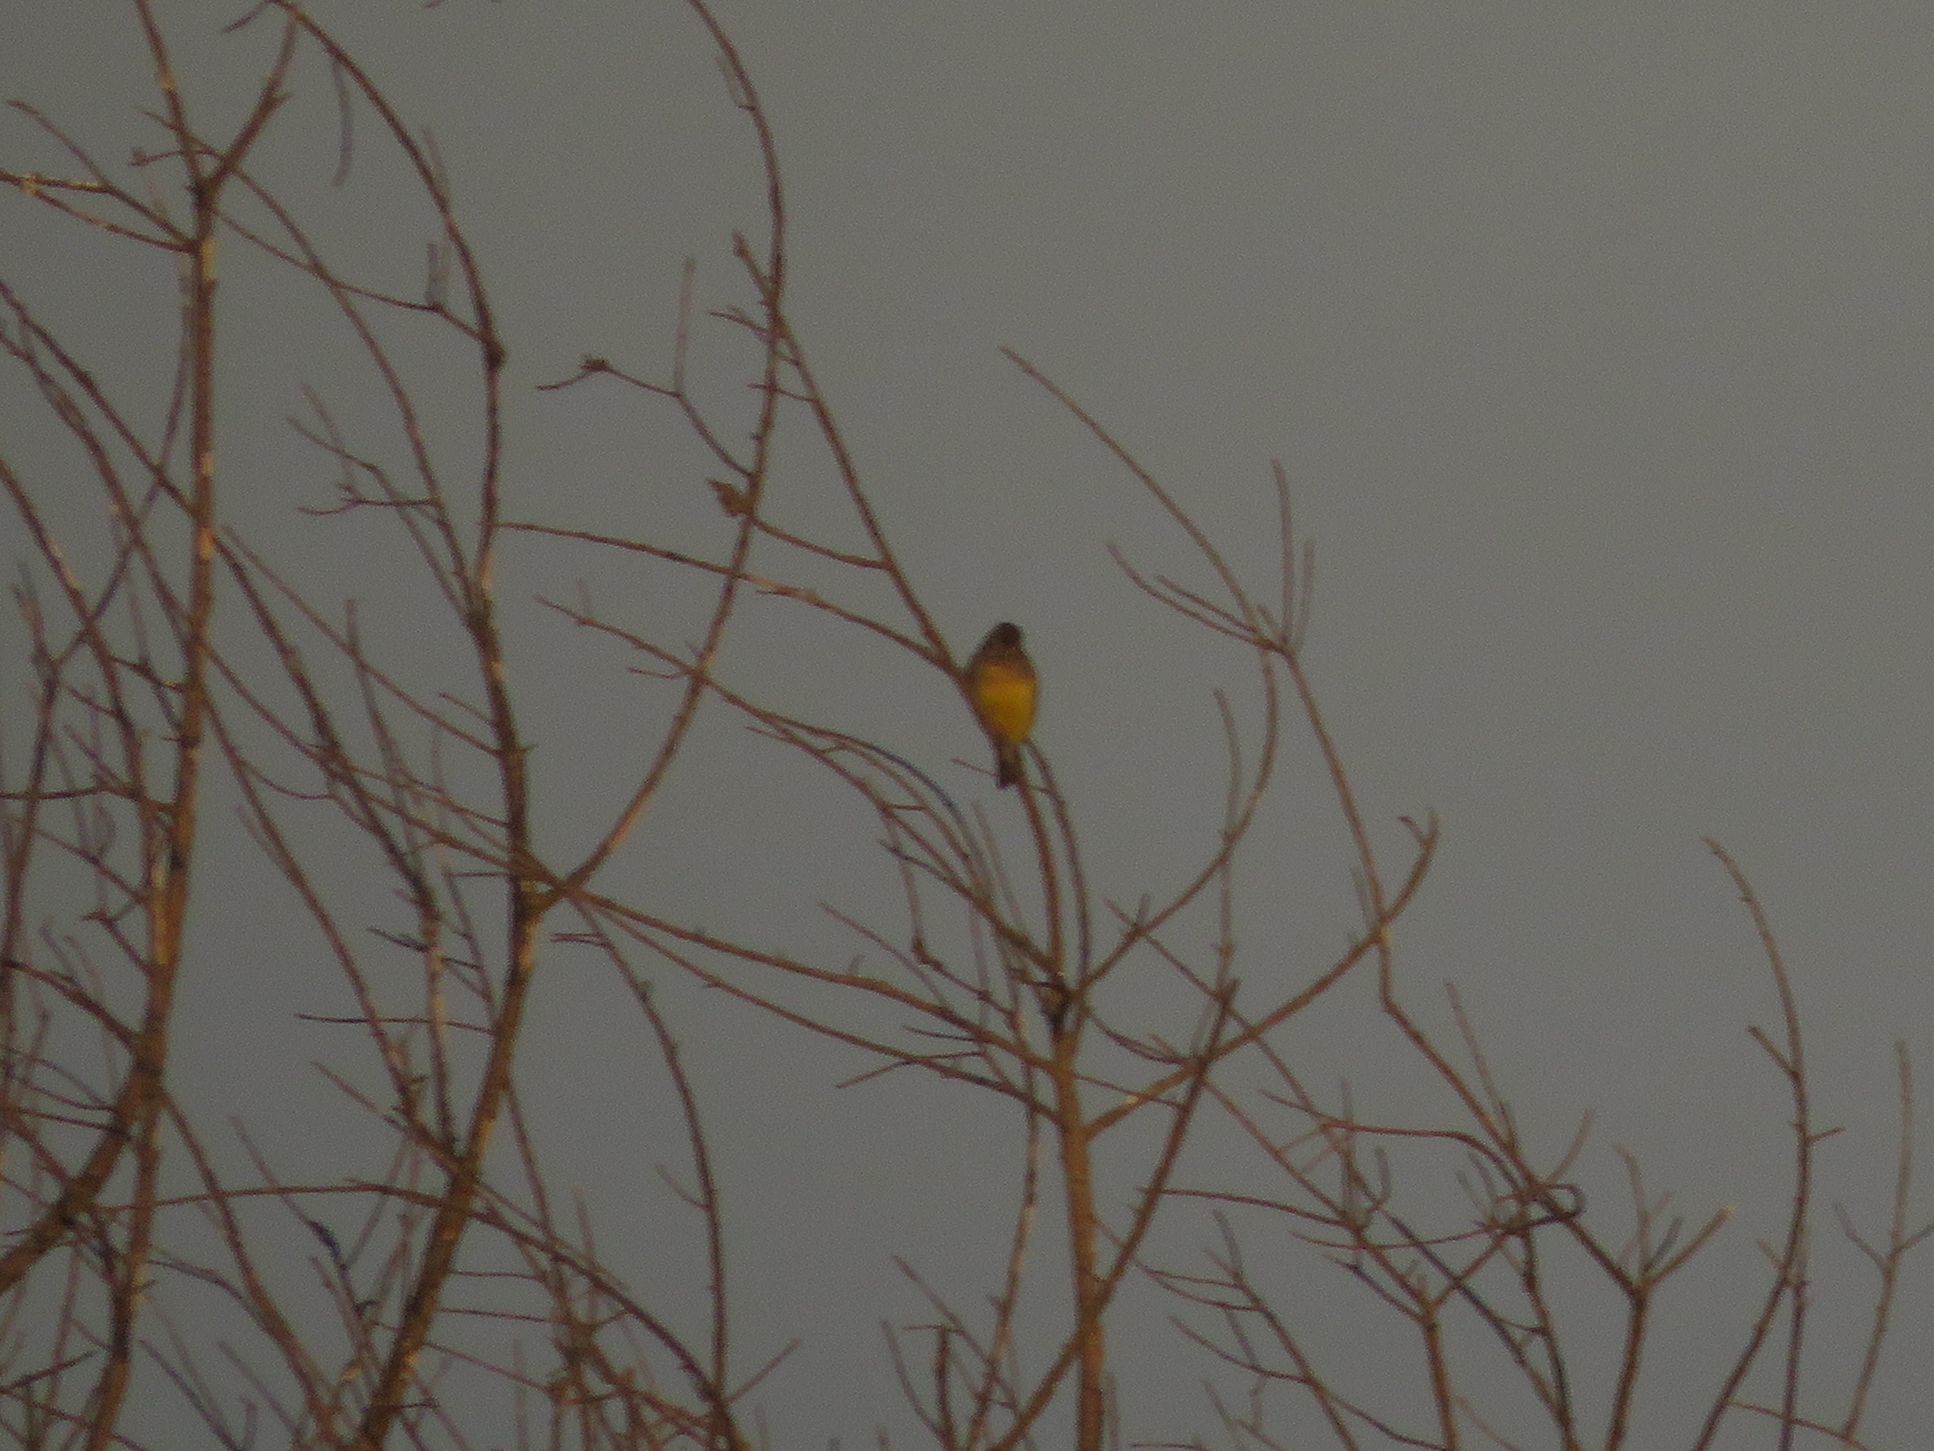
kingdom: Animalia
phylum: Chordata
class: Aves
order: Passeriformes
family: Thraupidae
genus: Sicalis
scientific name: Sicalis luteola
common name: Grassland yellow-finch
